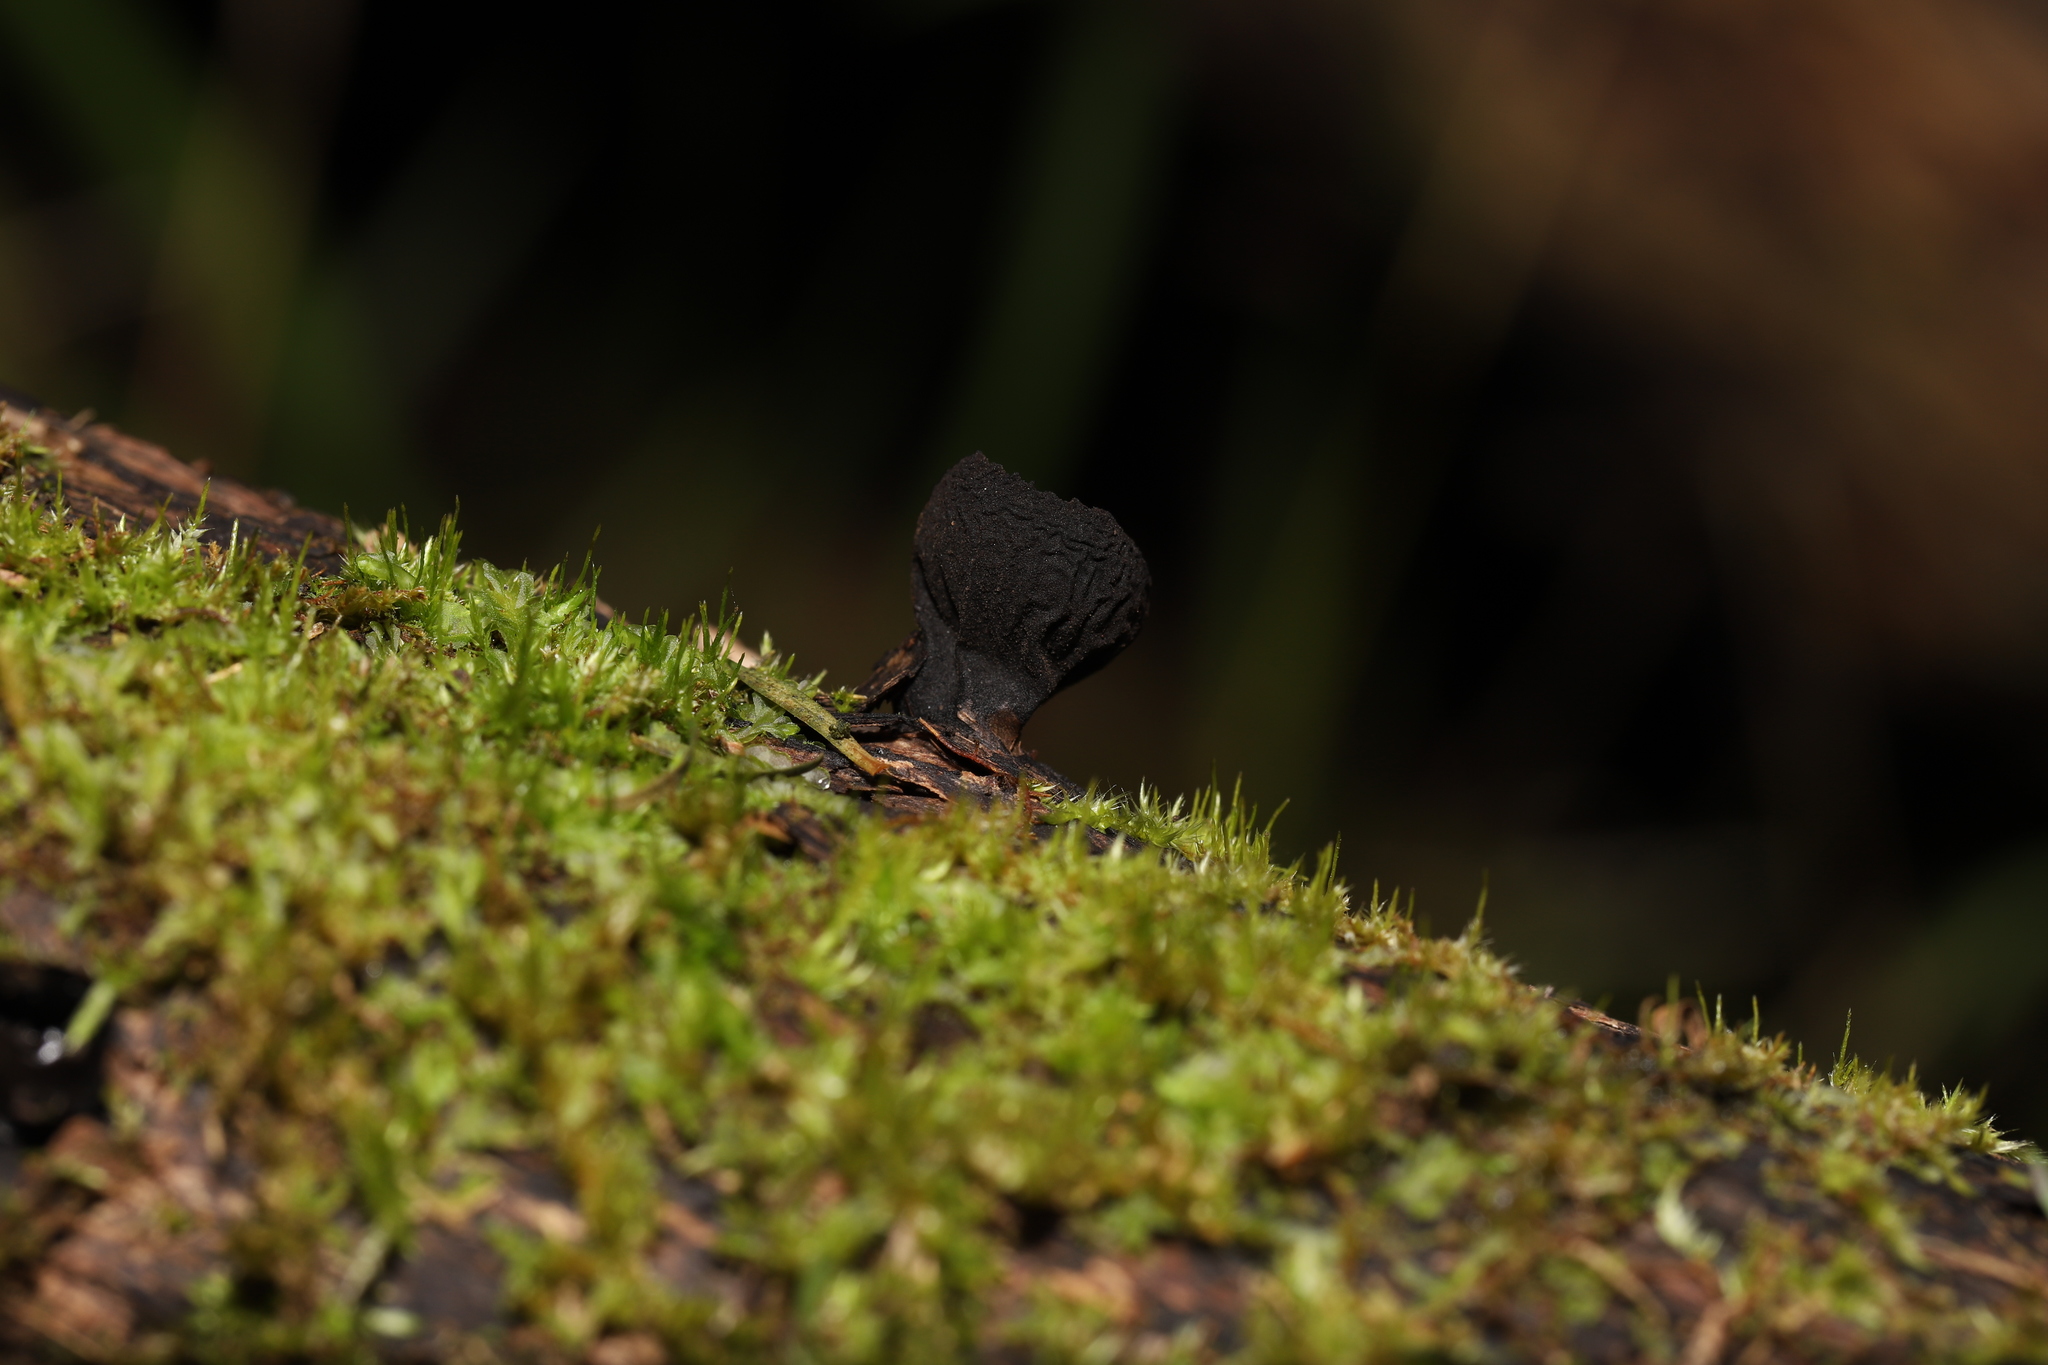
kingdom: Fungi
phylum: Ascomycota
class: Pezizomycetes
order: Pezizales
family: Sarcosomataceae
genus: Plectania
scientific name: Plectania campylospora
